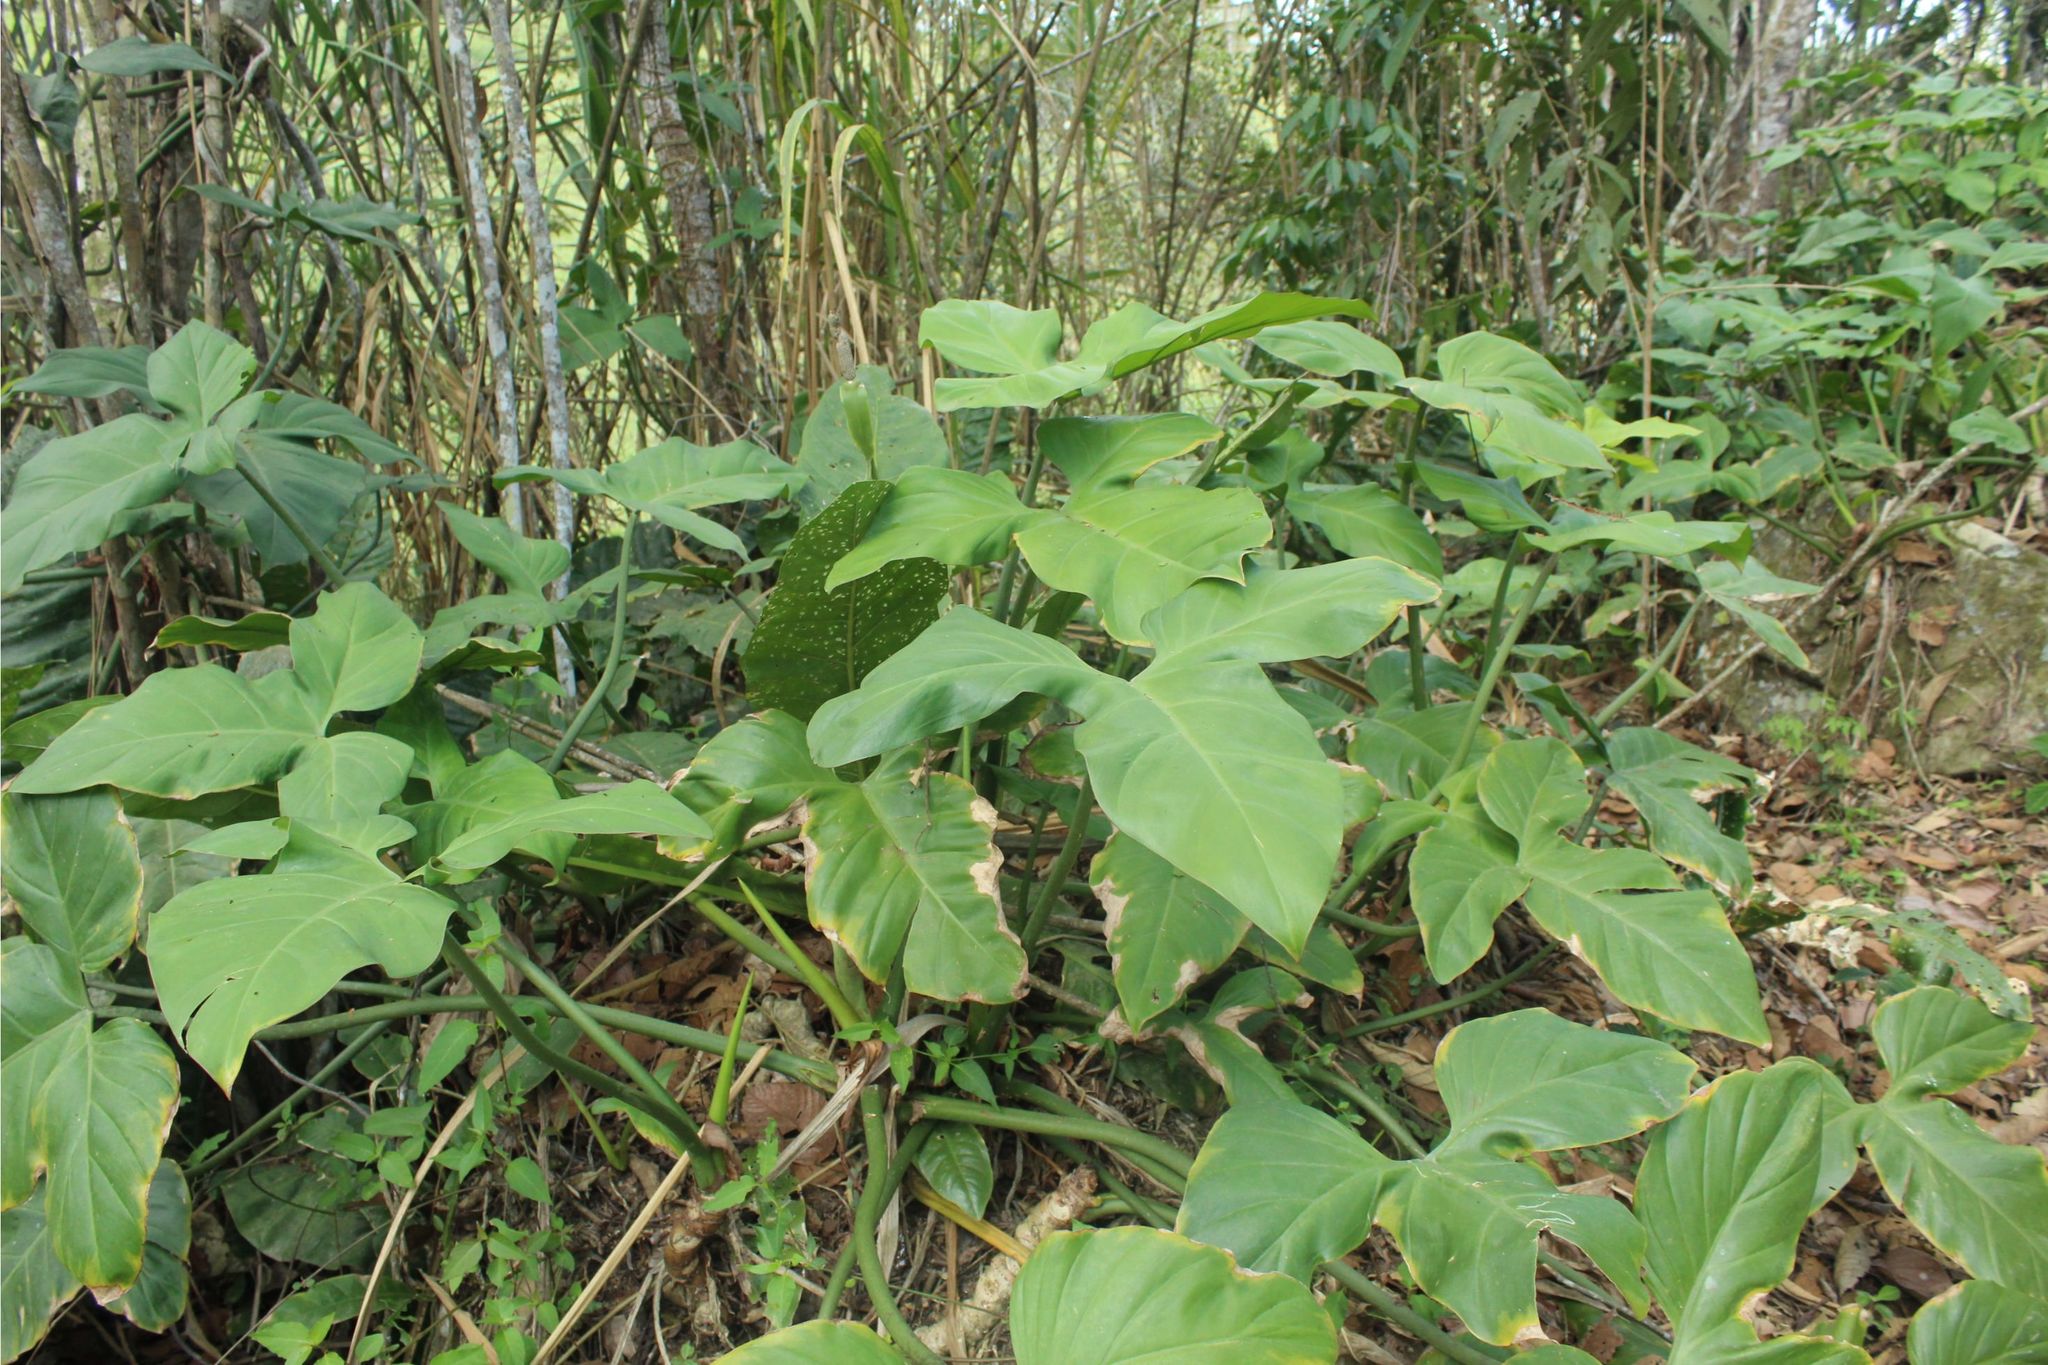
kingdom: Plantae
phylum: Tracheophyta
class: Liliopsida
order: Alismatales
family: Araceae
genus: Philodendron
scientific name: Philodendron
